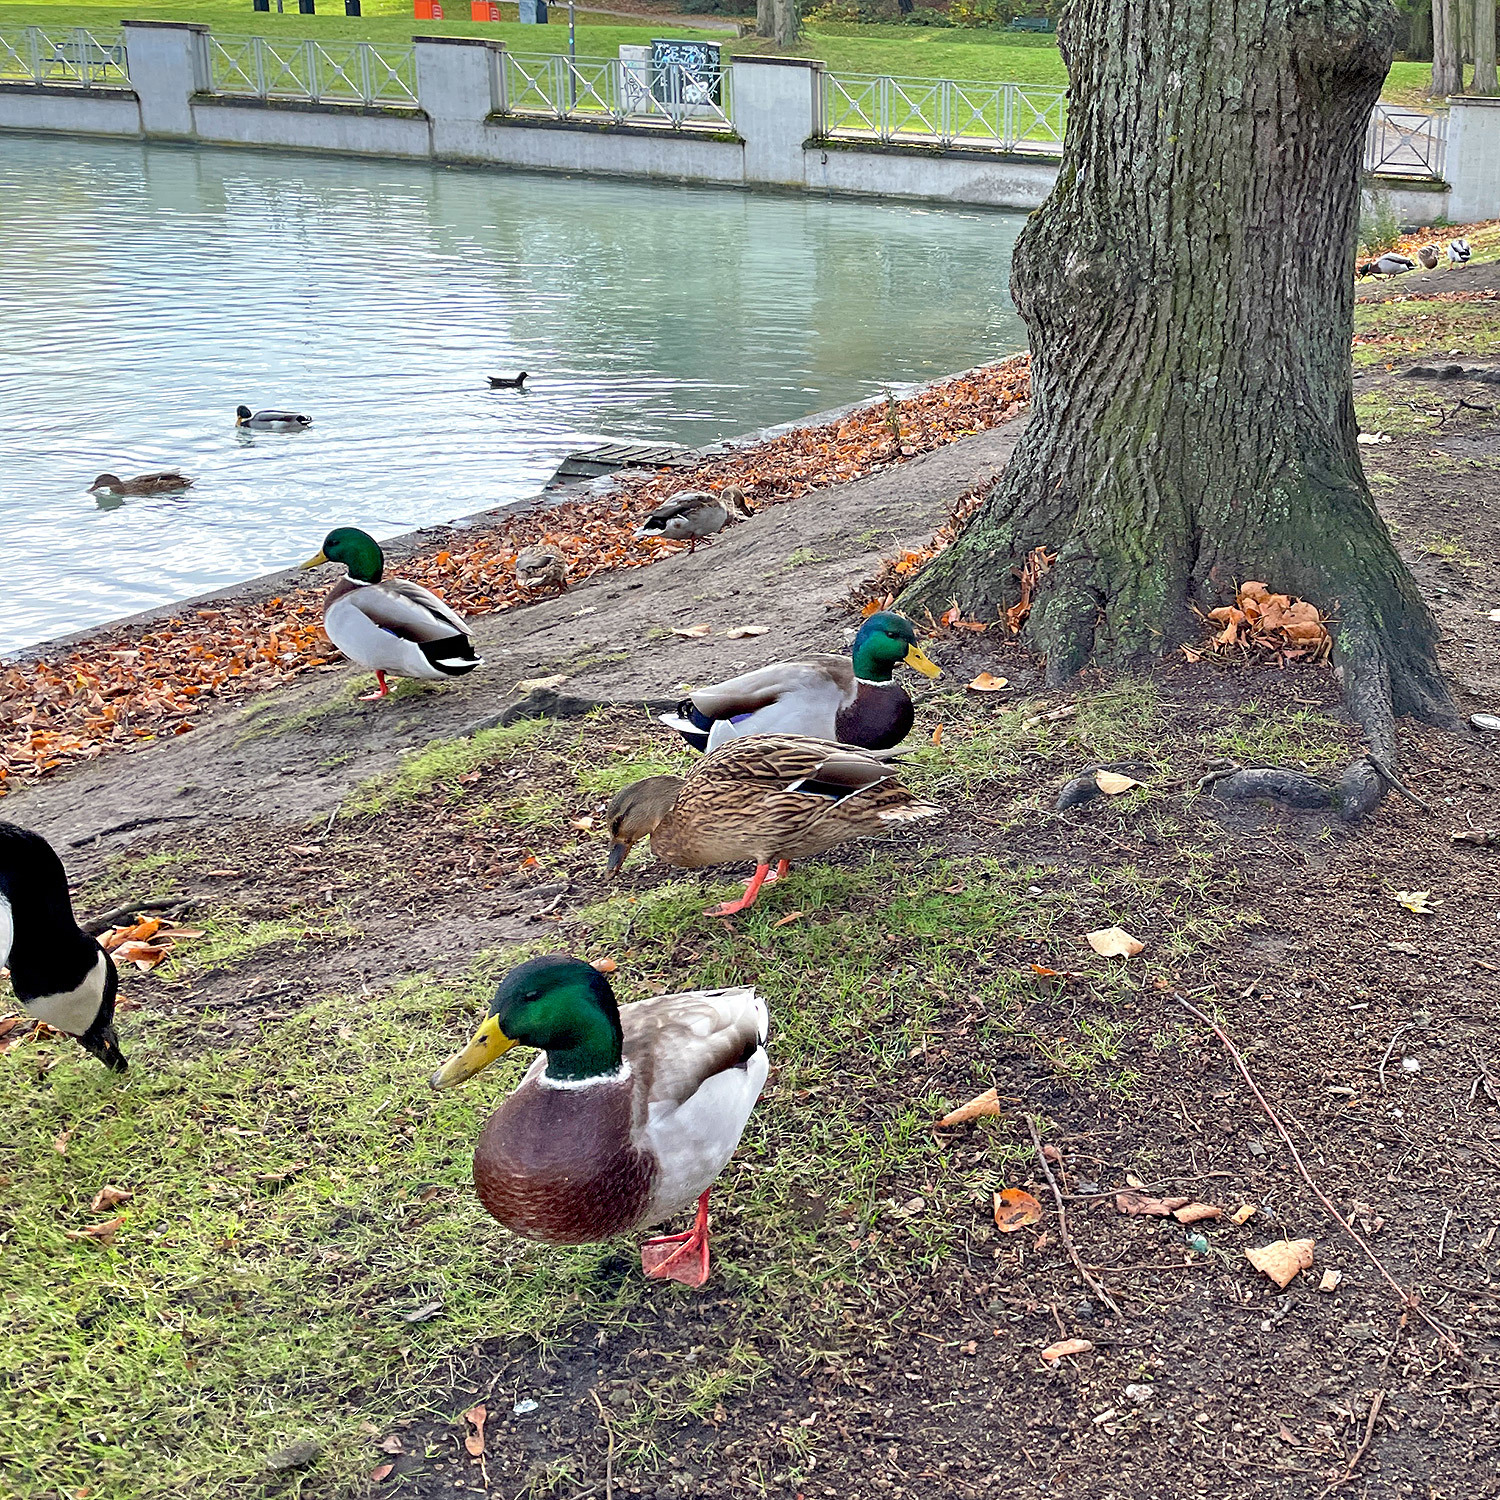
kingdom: Animalia
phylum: Chordata
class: Aves
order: Anseriformes
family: Anatidae
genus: Anas
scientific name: Anas platyrhynchos
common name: Mallard
